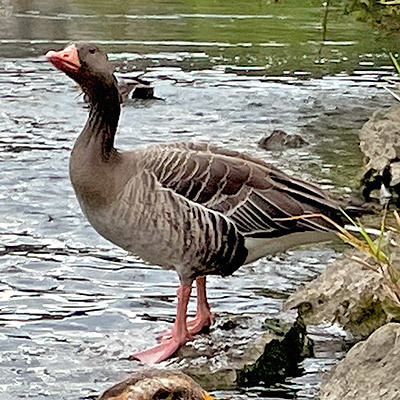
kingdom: Animalia
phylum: Chordata
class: Aves
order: Anseriformes
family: Anatidae
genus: Anser
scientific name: Anser anser
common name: Greylag goose
